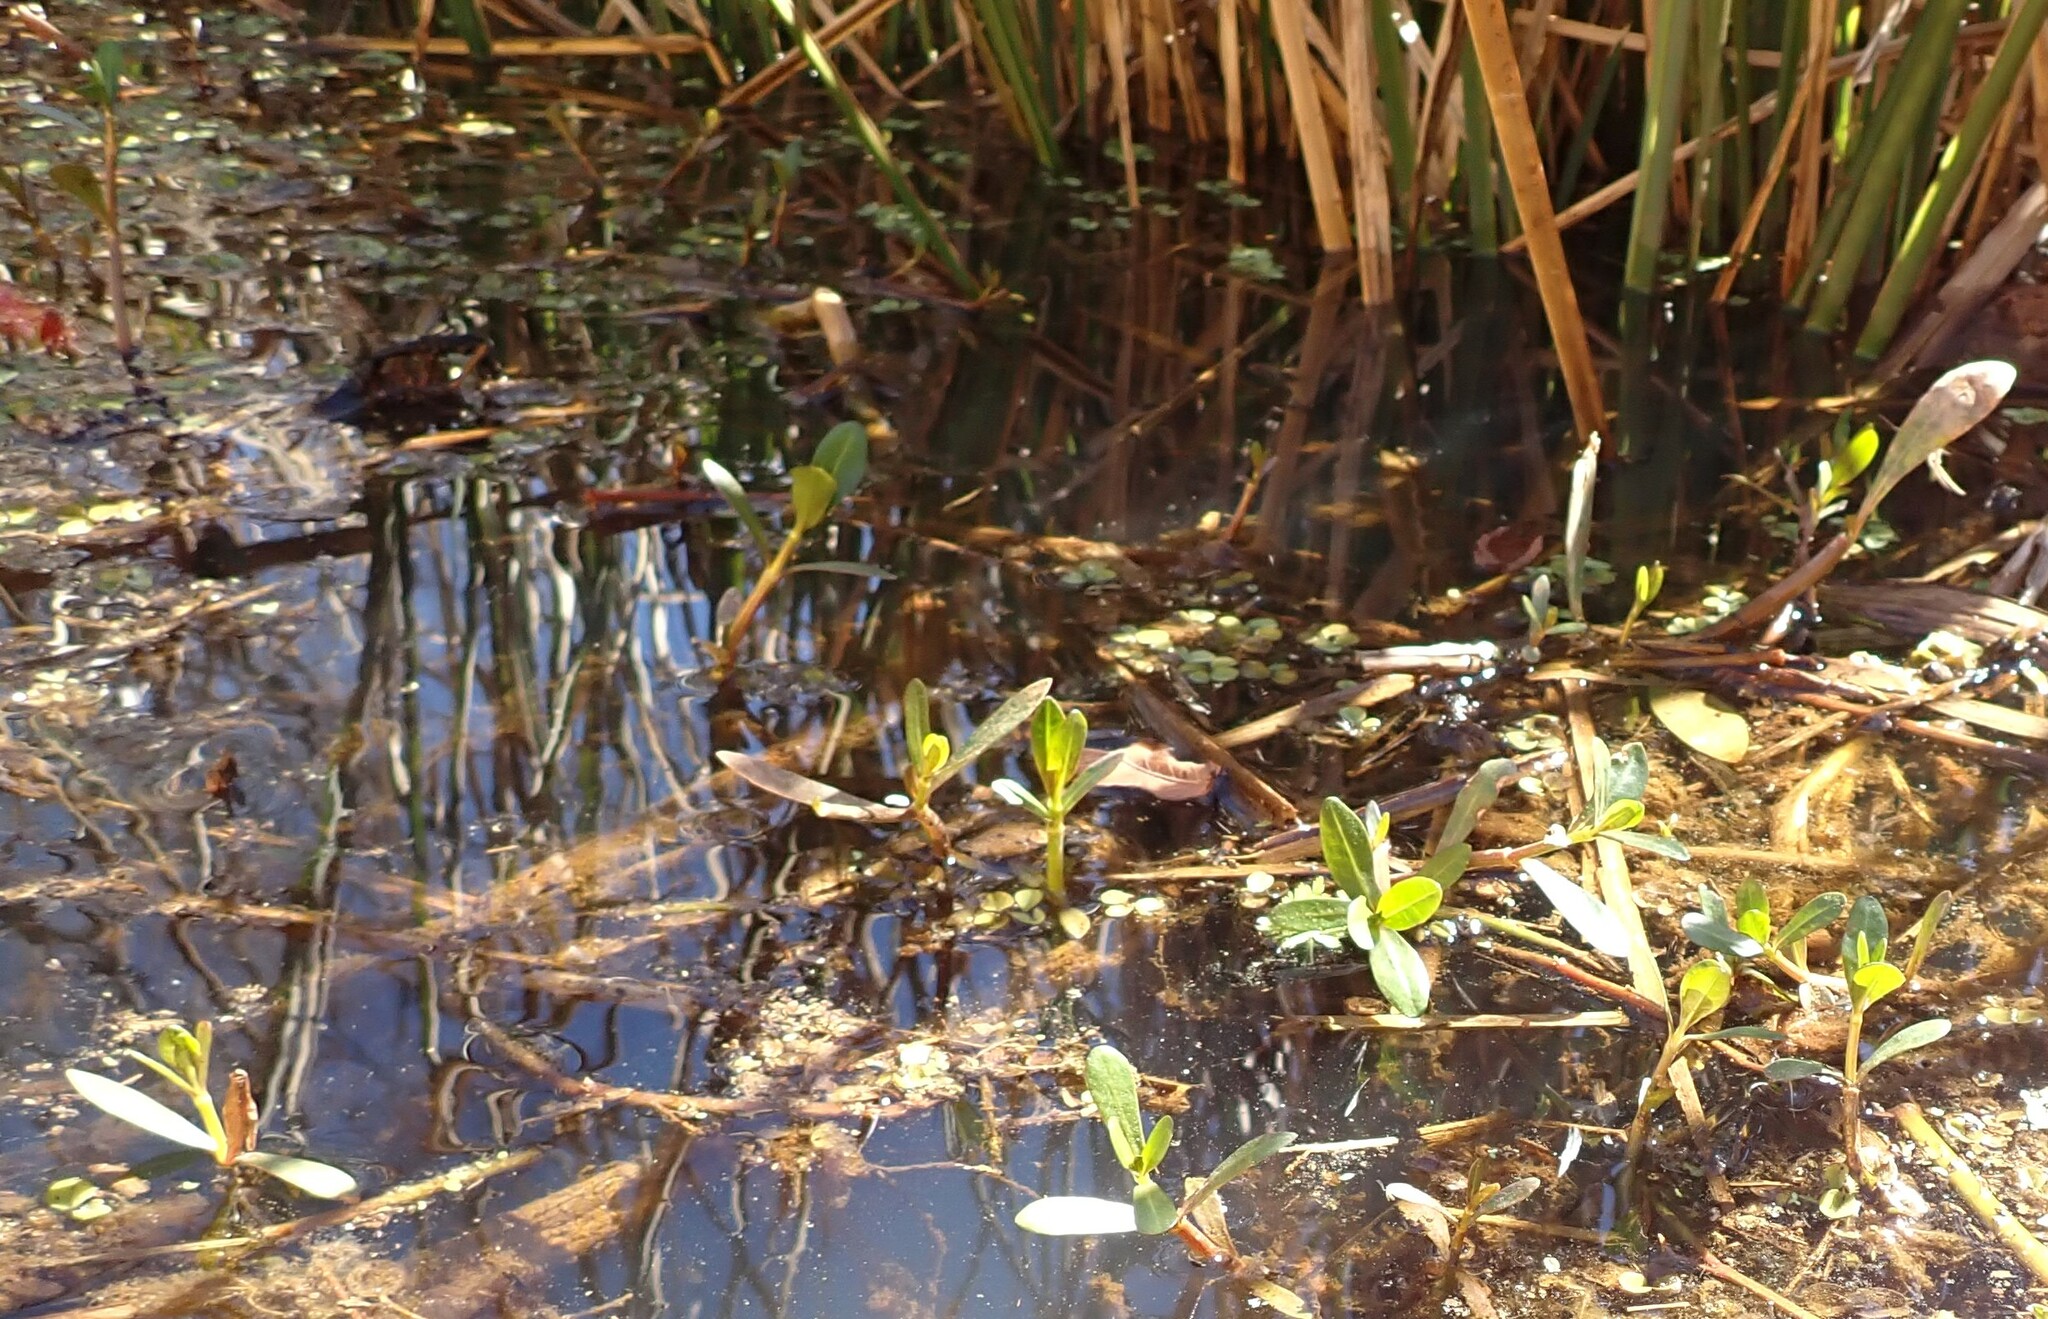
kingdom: Plantae
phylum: Tracheophyta
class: Magnoliopsida
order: Caryophyllales
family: Amaranthaceae
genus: Alternanthera
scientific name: Alternanthera philoxeroides
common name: Alligatorweed
